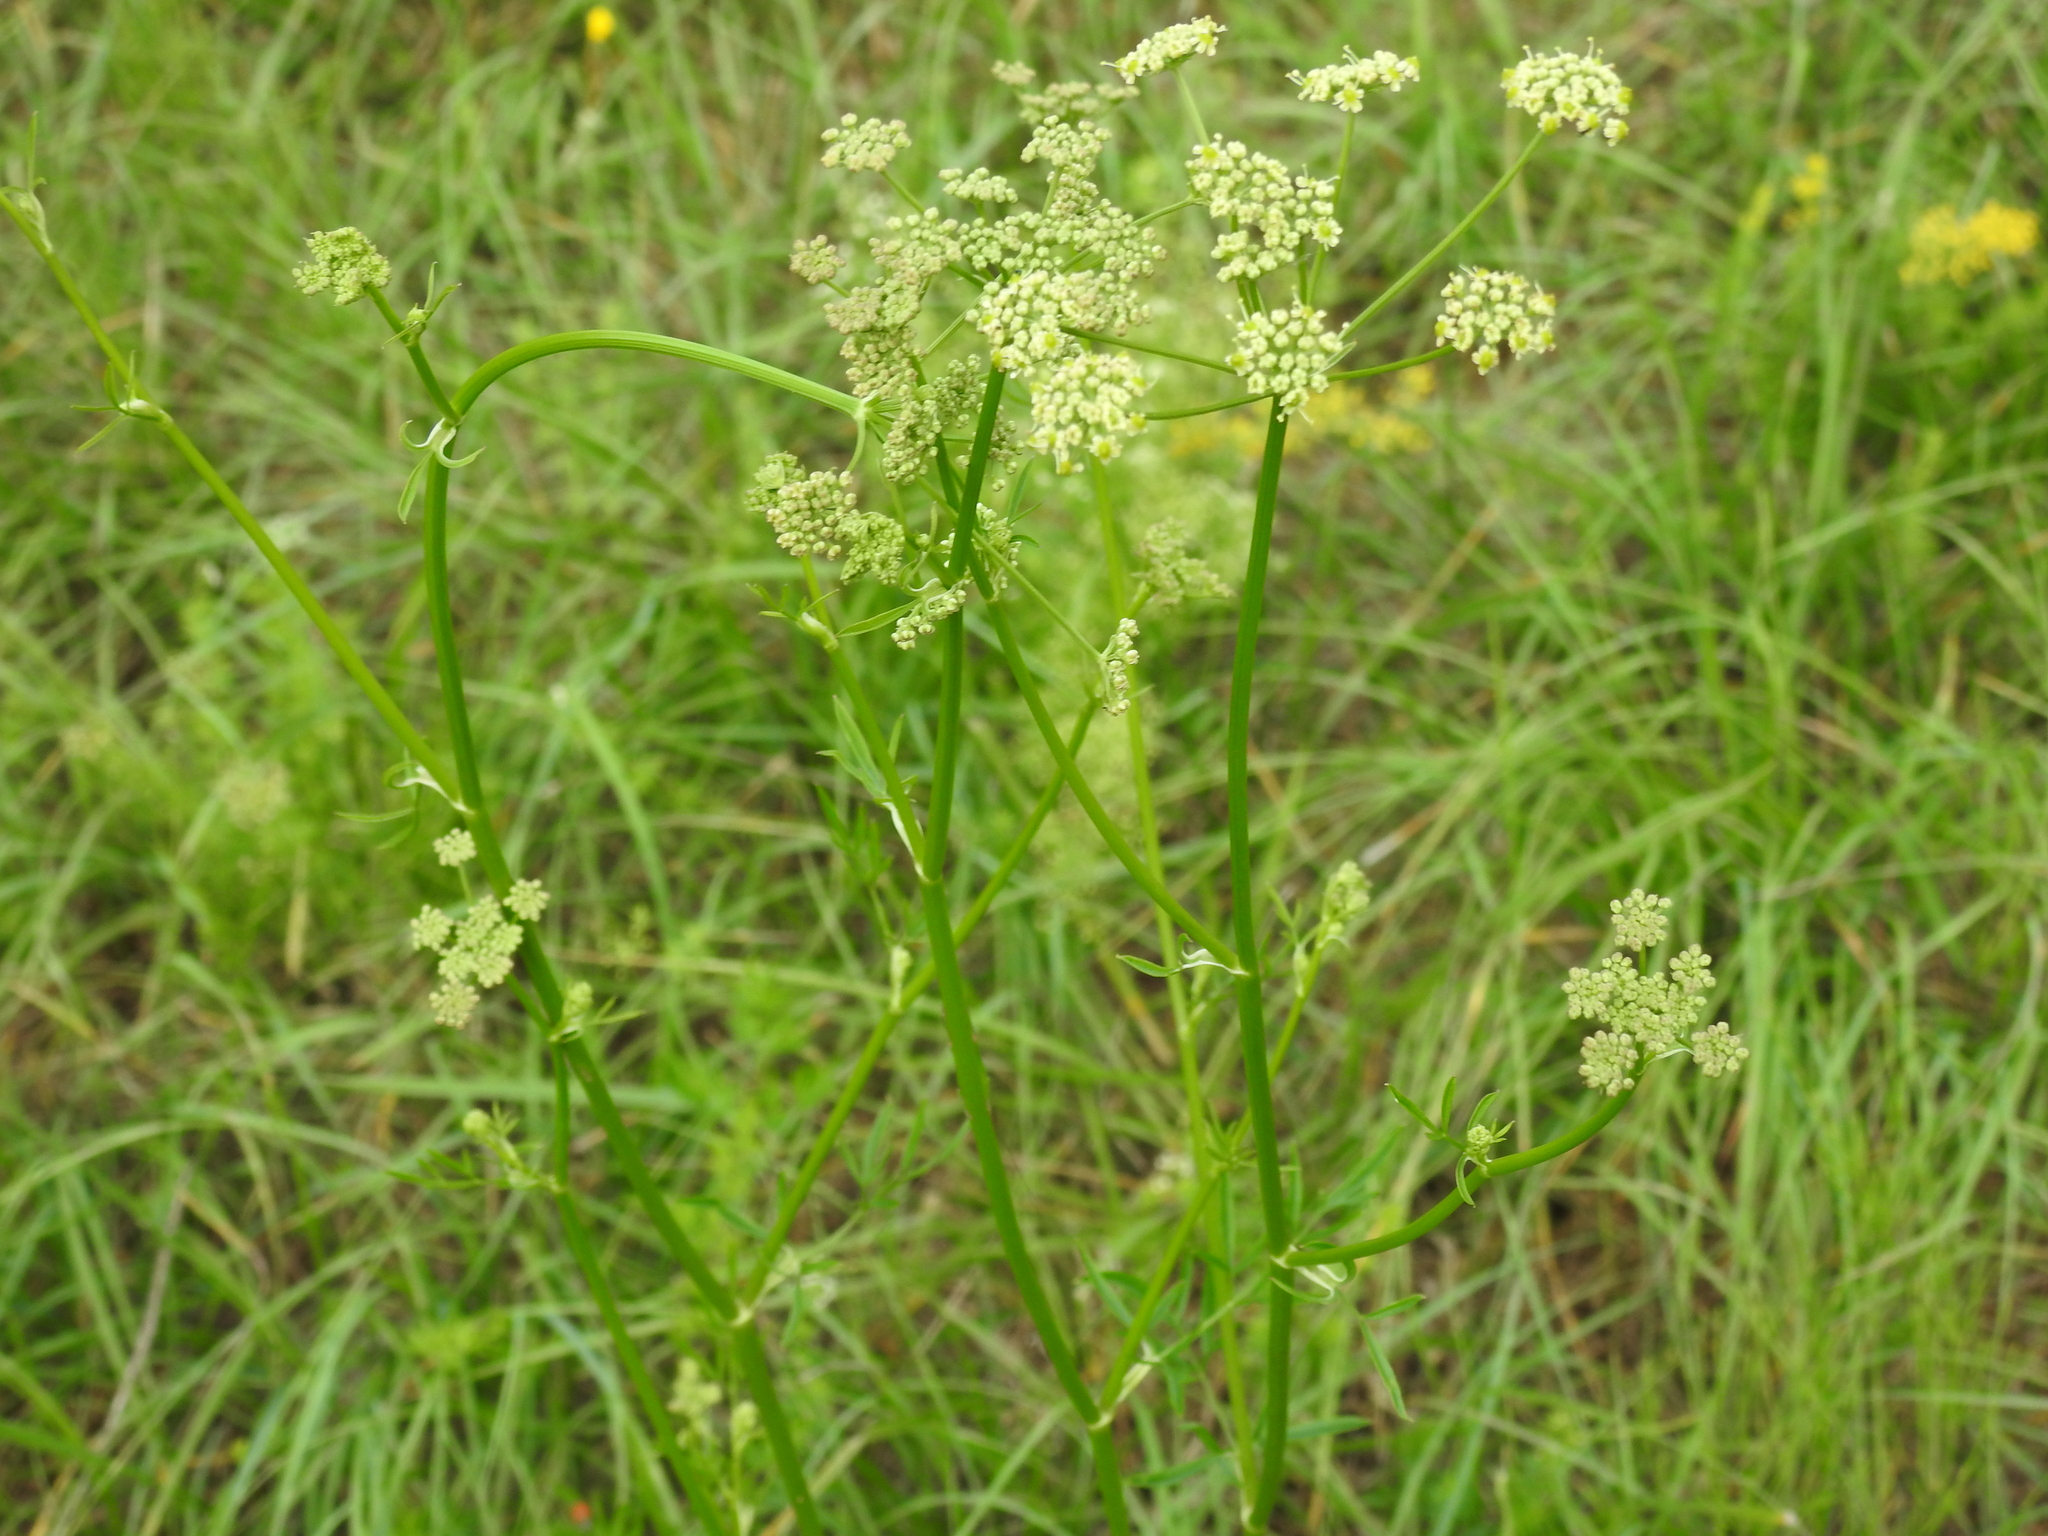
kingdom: Plantae
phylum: Tracheophyta
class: Magnoliopsida
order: Apiales
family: Apiaceae
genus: Silaum
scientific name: Silaum silaus
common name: Pepper-saxifrage
